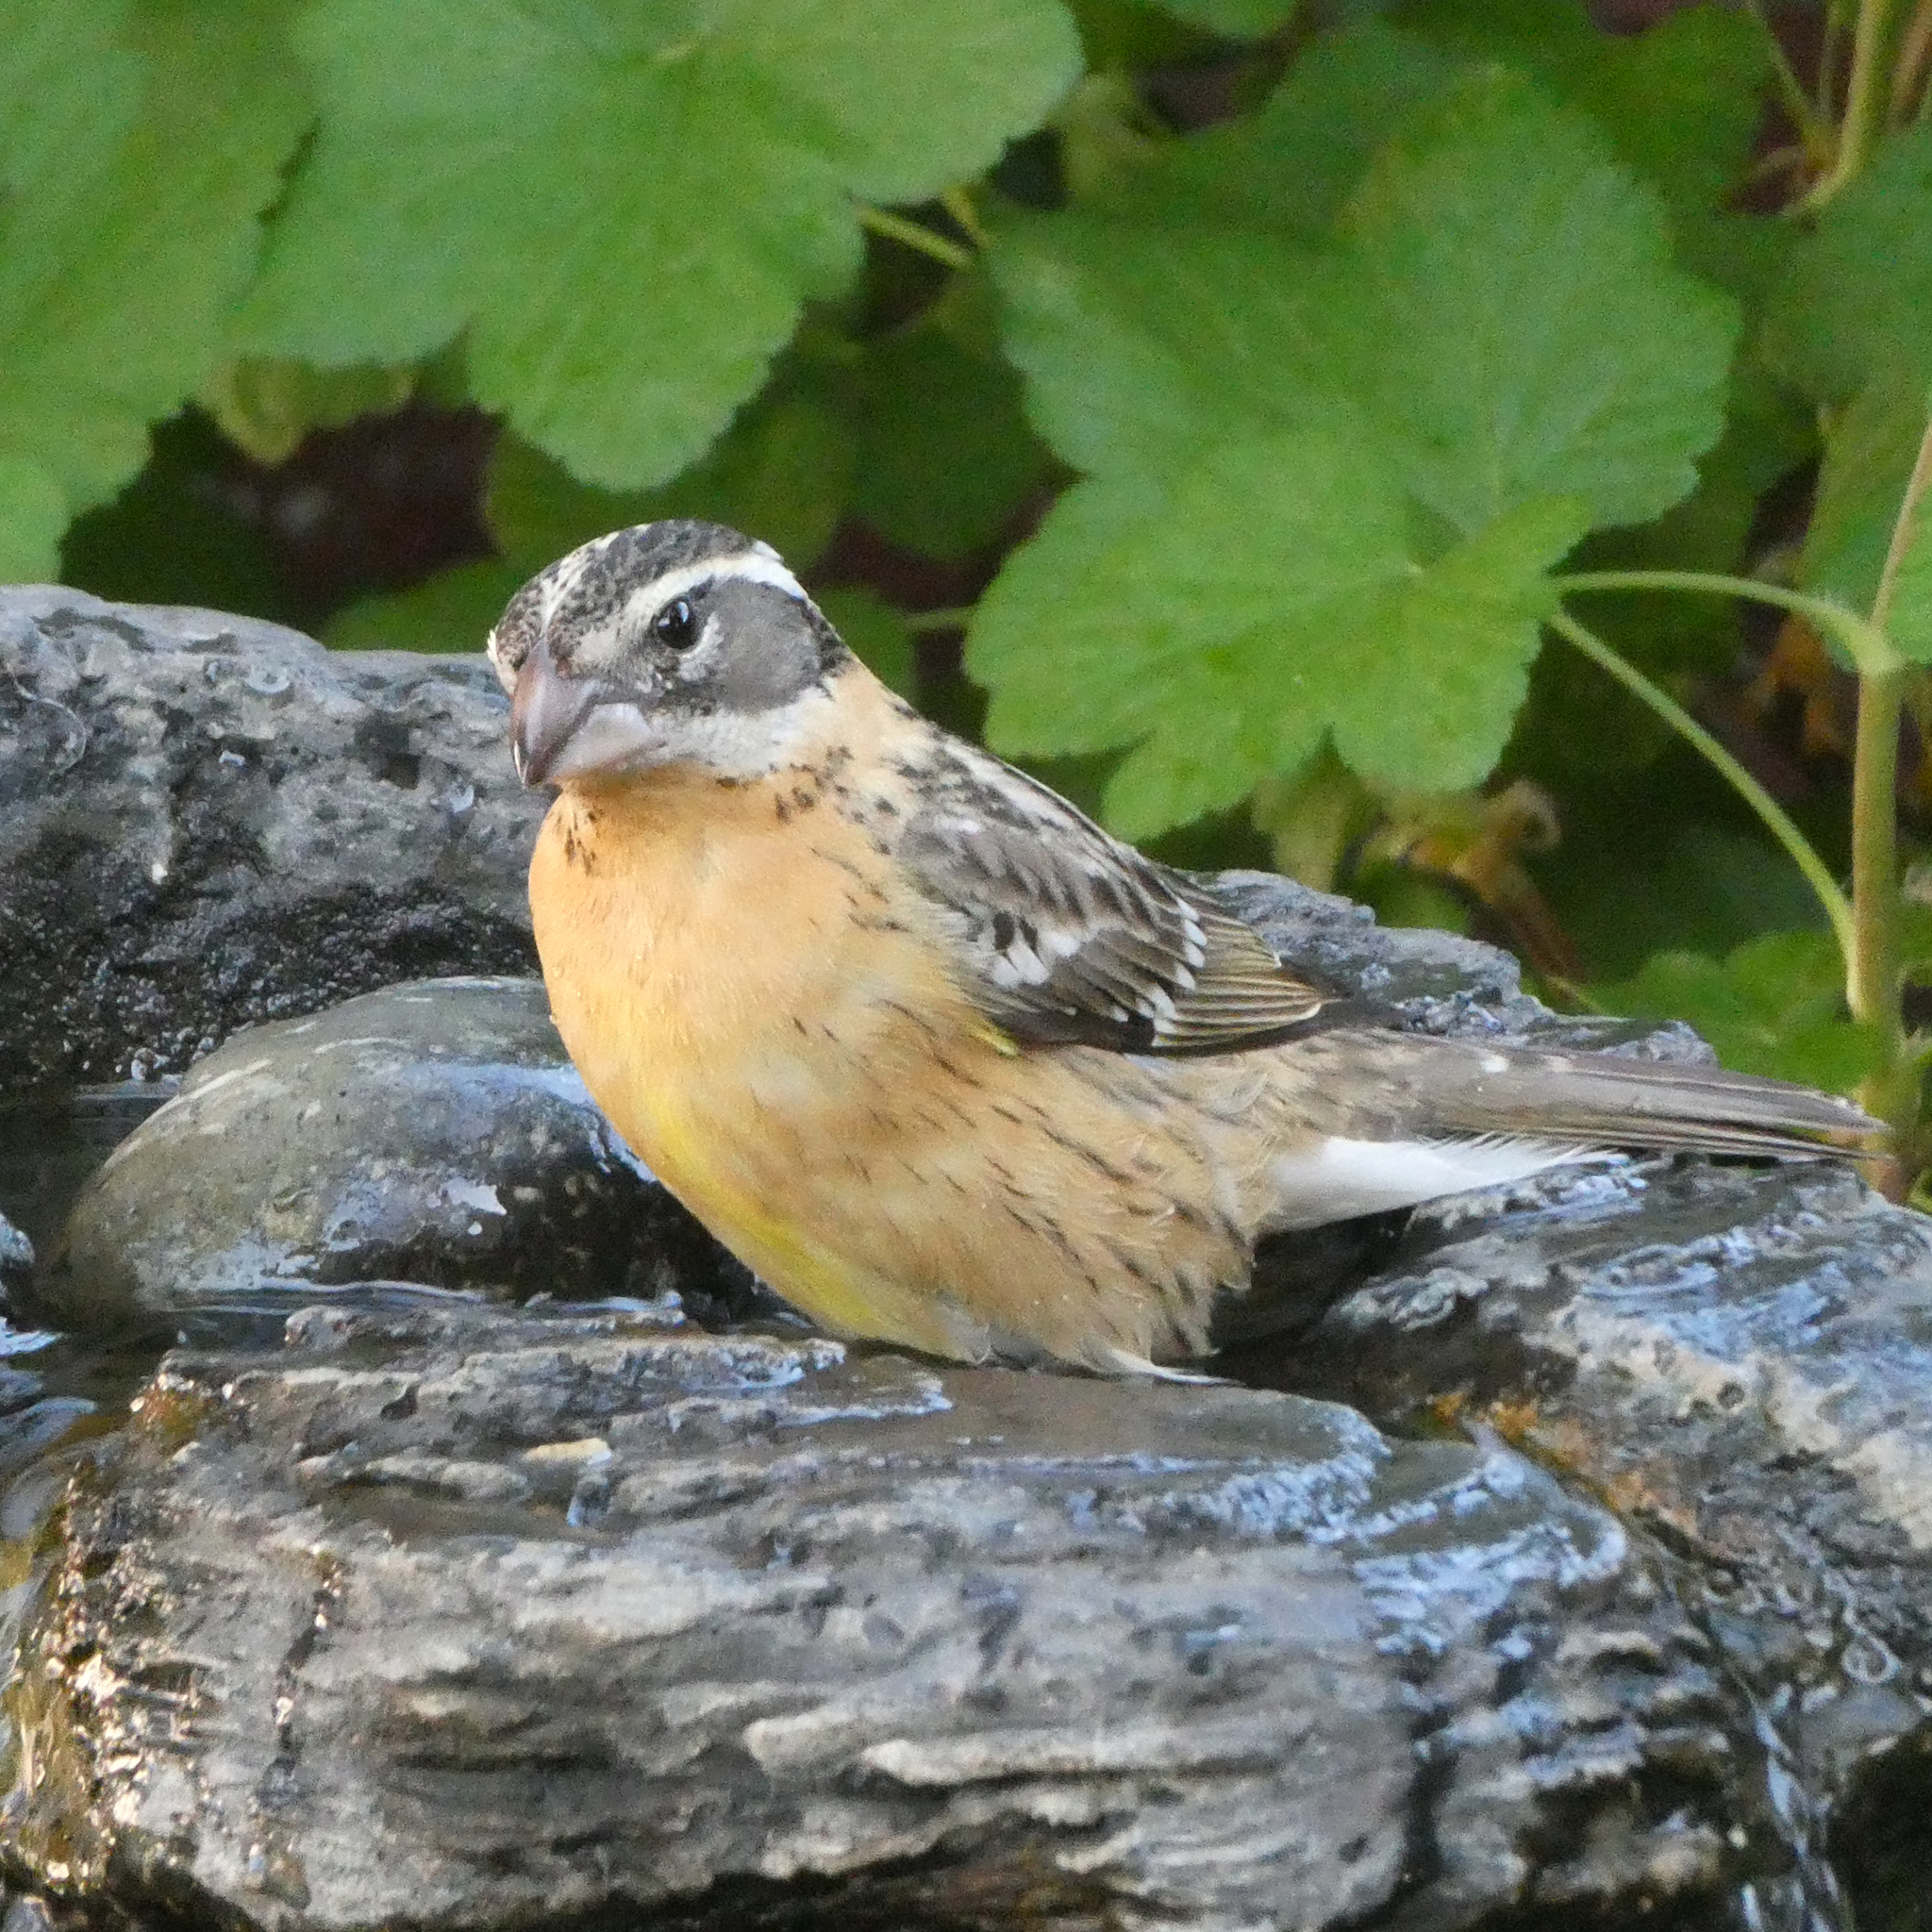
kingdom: Animalia
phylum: Chordata
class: Aves
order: Passeriformes
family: Cardinalidae
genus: Pheucticus
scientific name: Pheucticus melanocephalus
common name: Black-headed grosbeak
